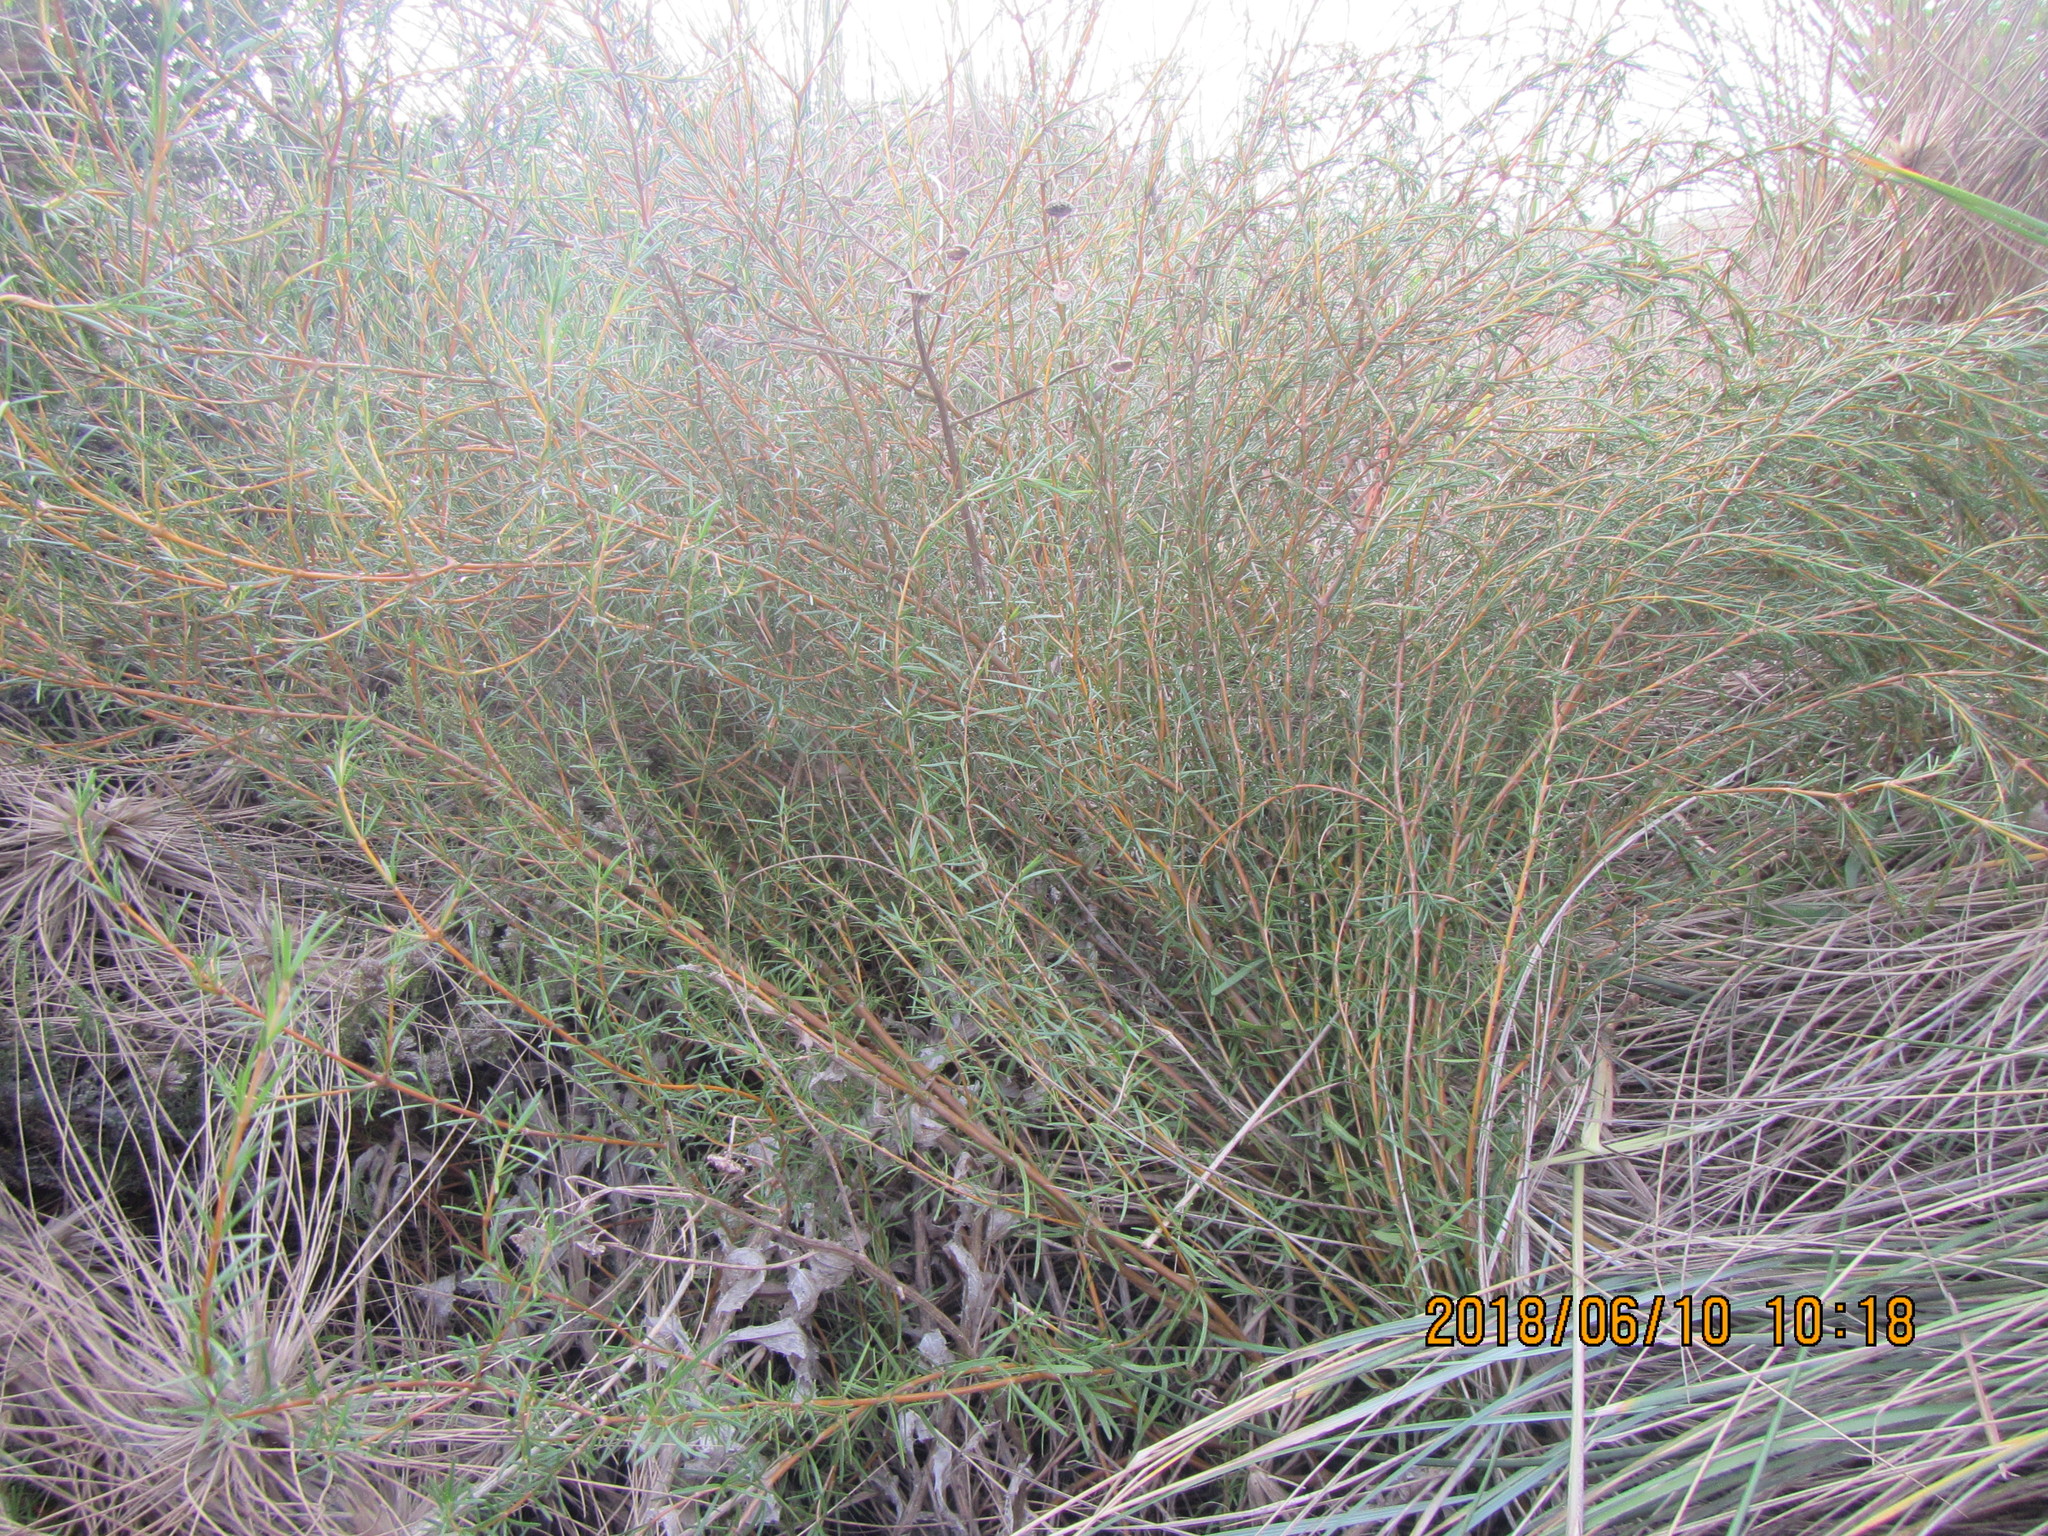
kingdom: Plantae
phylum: Tracheophyta
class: Magnoliopsida
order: Gentianales
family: Rubiaceae
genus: Coprosma
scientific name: Coprosma acerosa
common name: Sand coprosma
